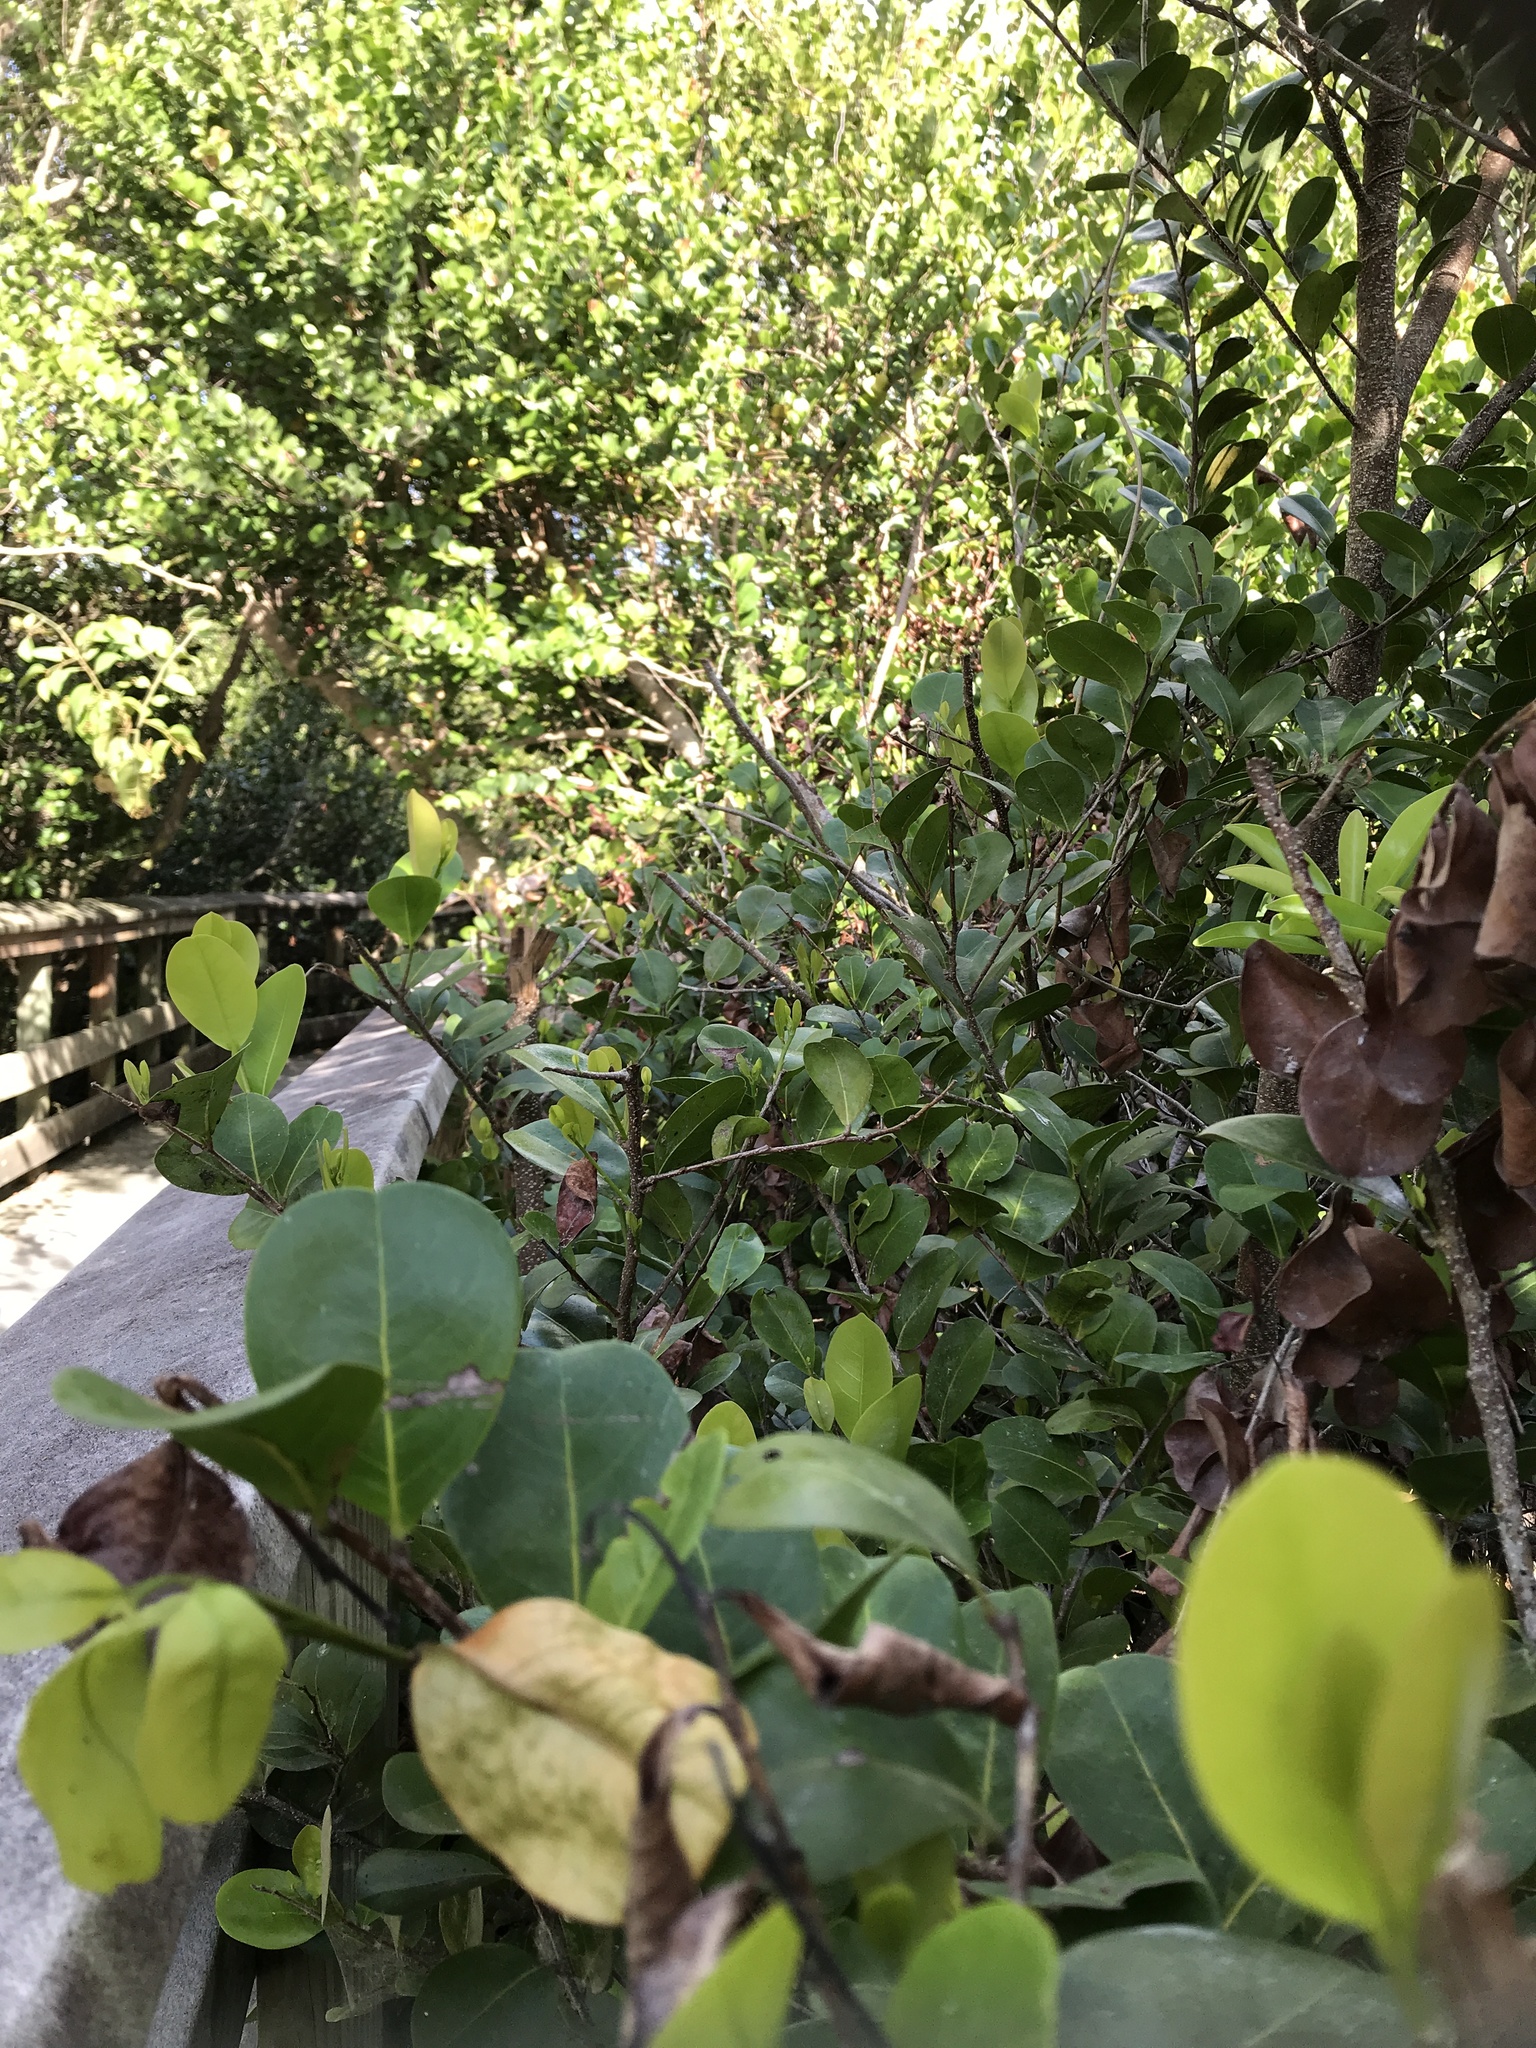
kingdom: Plantae
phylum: Tracheophyta
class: Magnoliopsida
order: Malpighiales
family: Chrysobalanaceae
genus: Chrysobalanus
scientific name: Chrysobalanus icaco
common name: Coco plum
